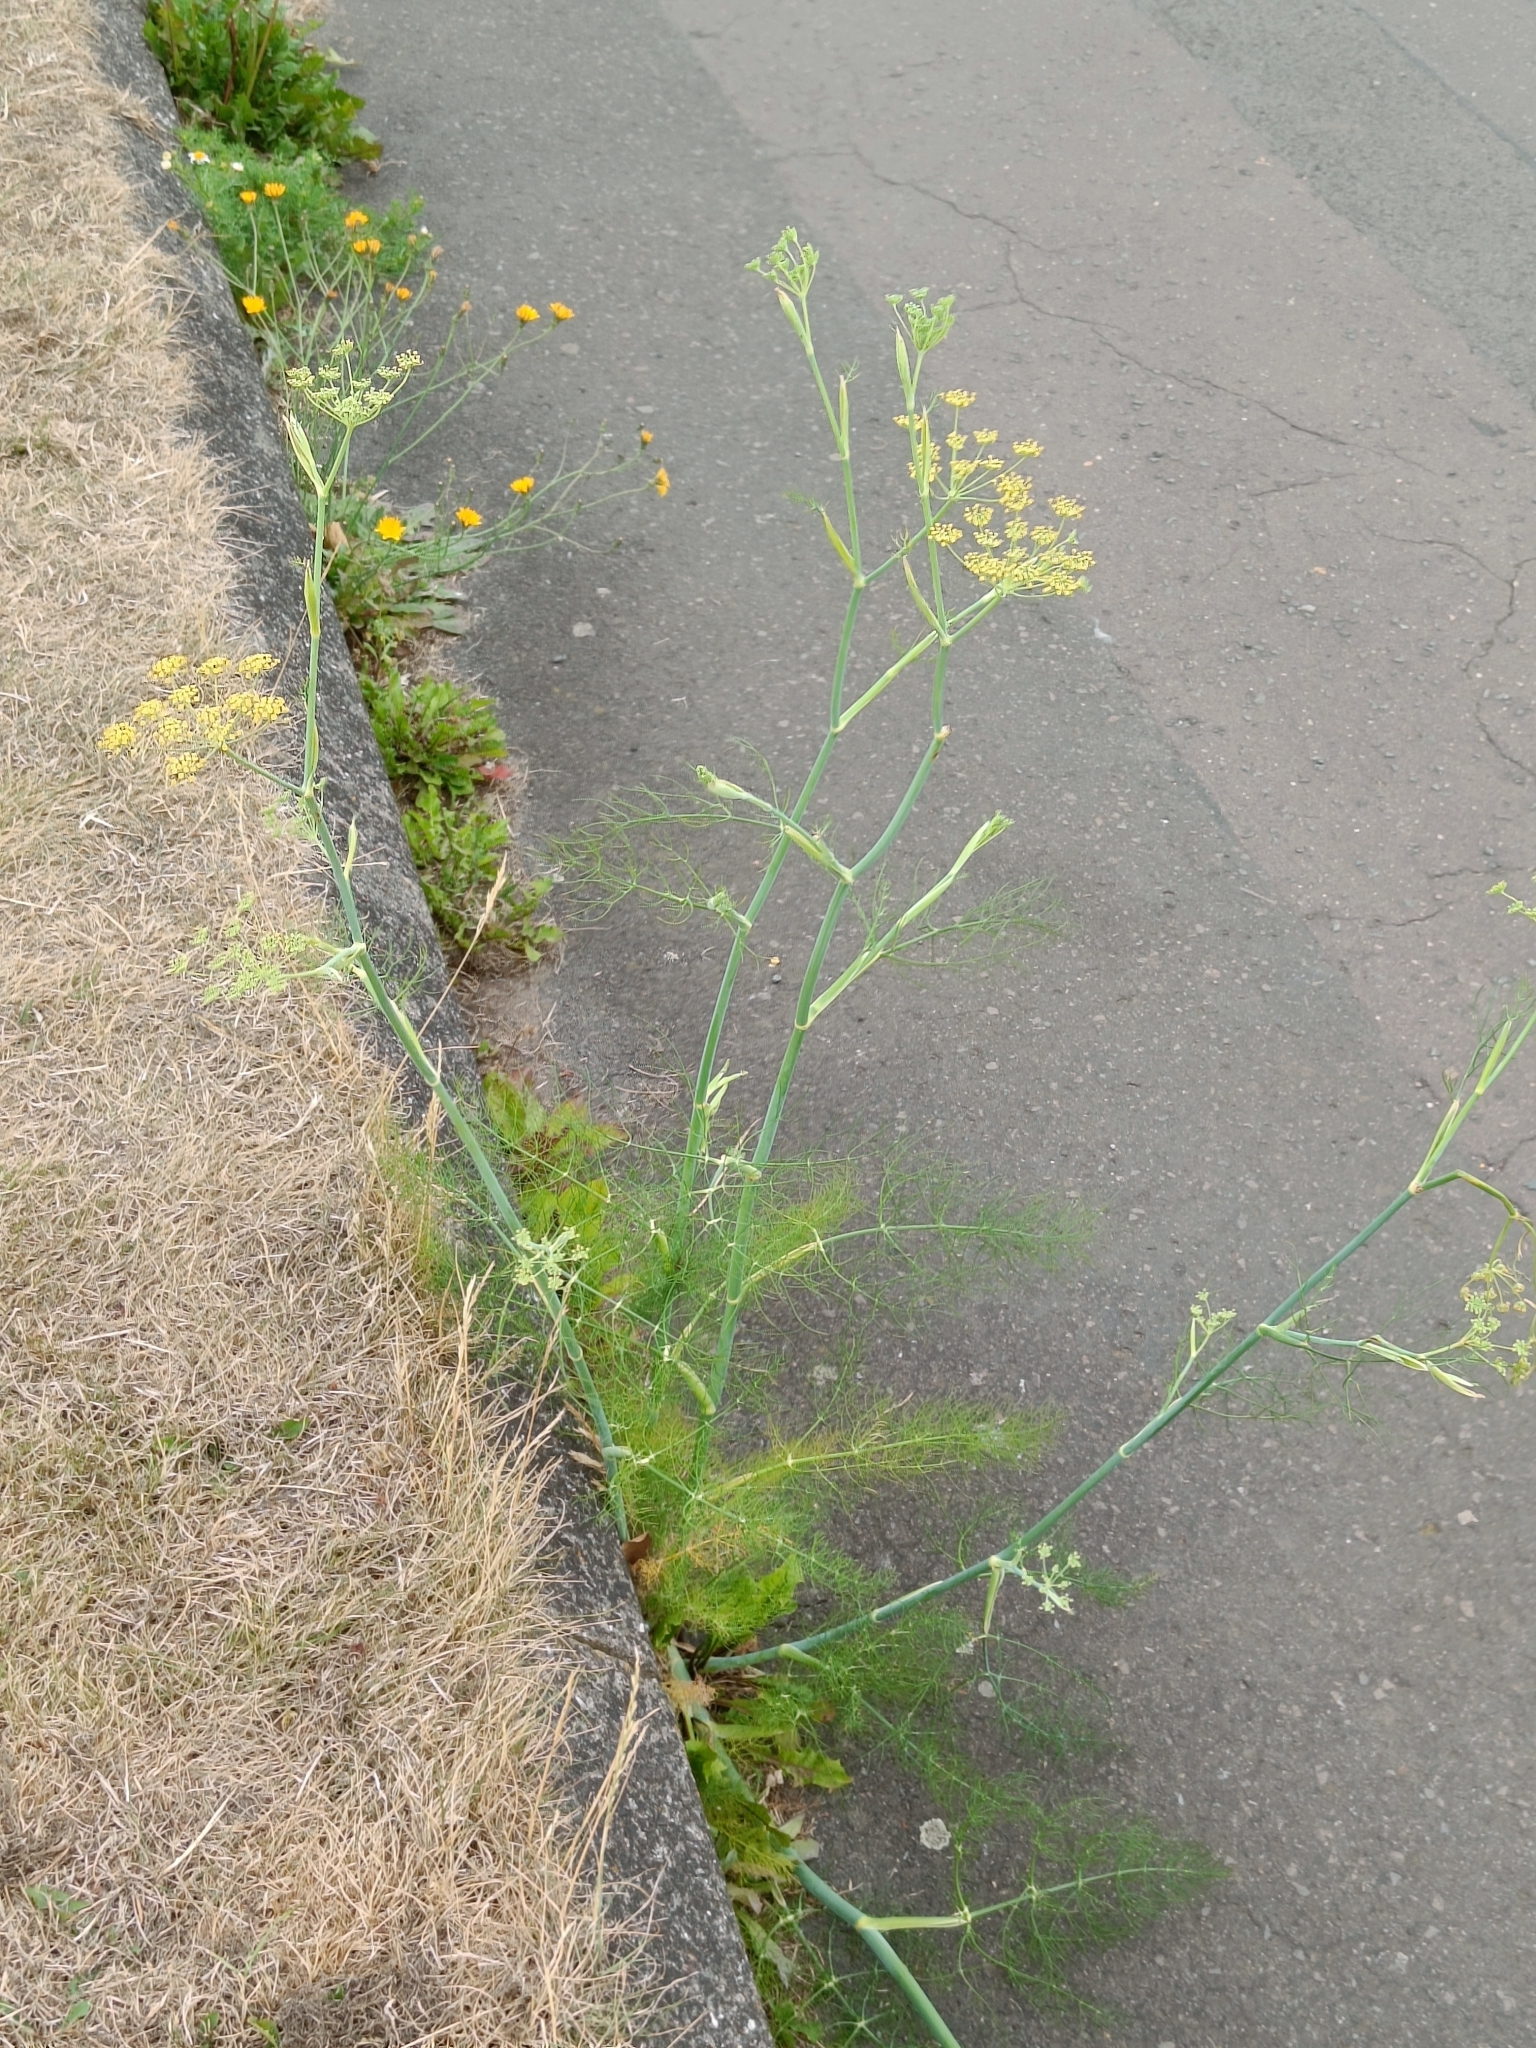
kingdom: Plantae
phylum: Tracheophyta
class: Magnoliopsida
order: Apiales
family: Apiaceae
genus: Foeniculum
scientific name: Foeniculum vulgare
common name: Fennel
